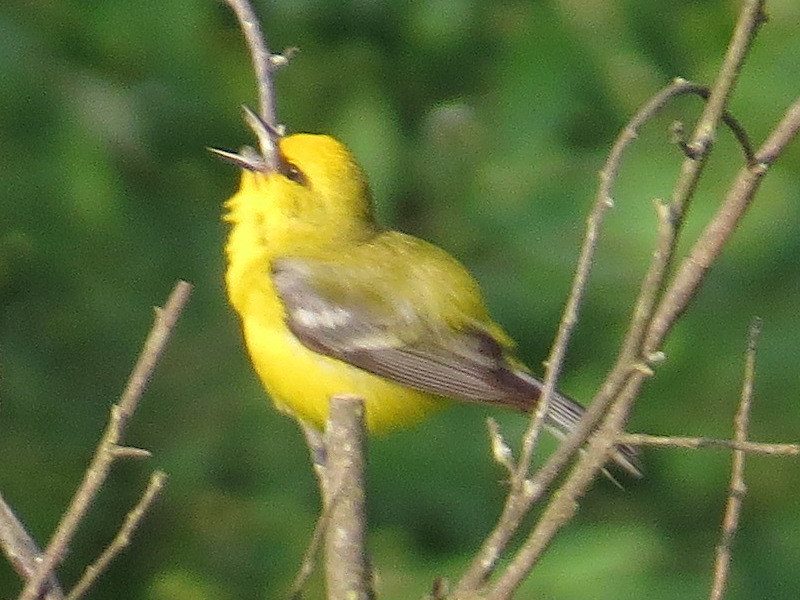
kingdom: Animalia
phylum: Chordata
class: Aves
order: Passeriformes
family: Parulidae
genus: Vermivora
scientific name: Vermivora cyanoptera
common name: Blue-winged warbler
